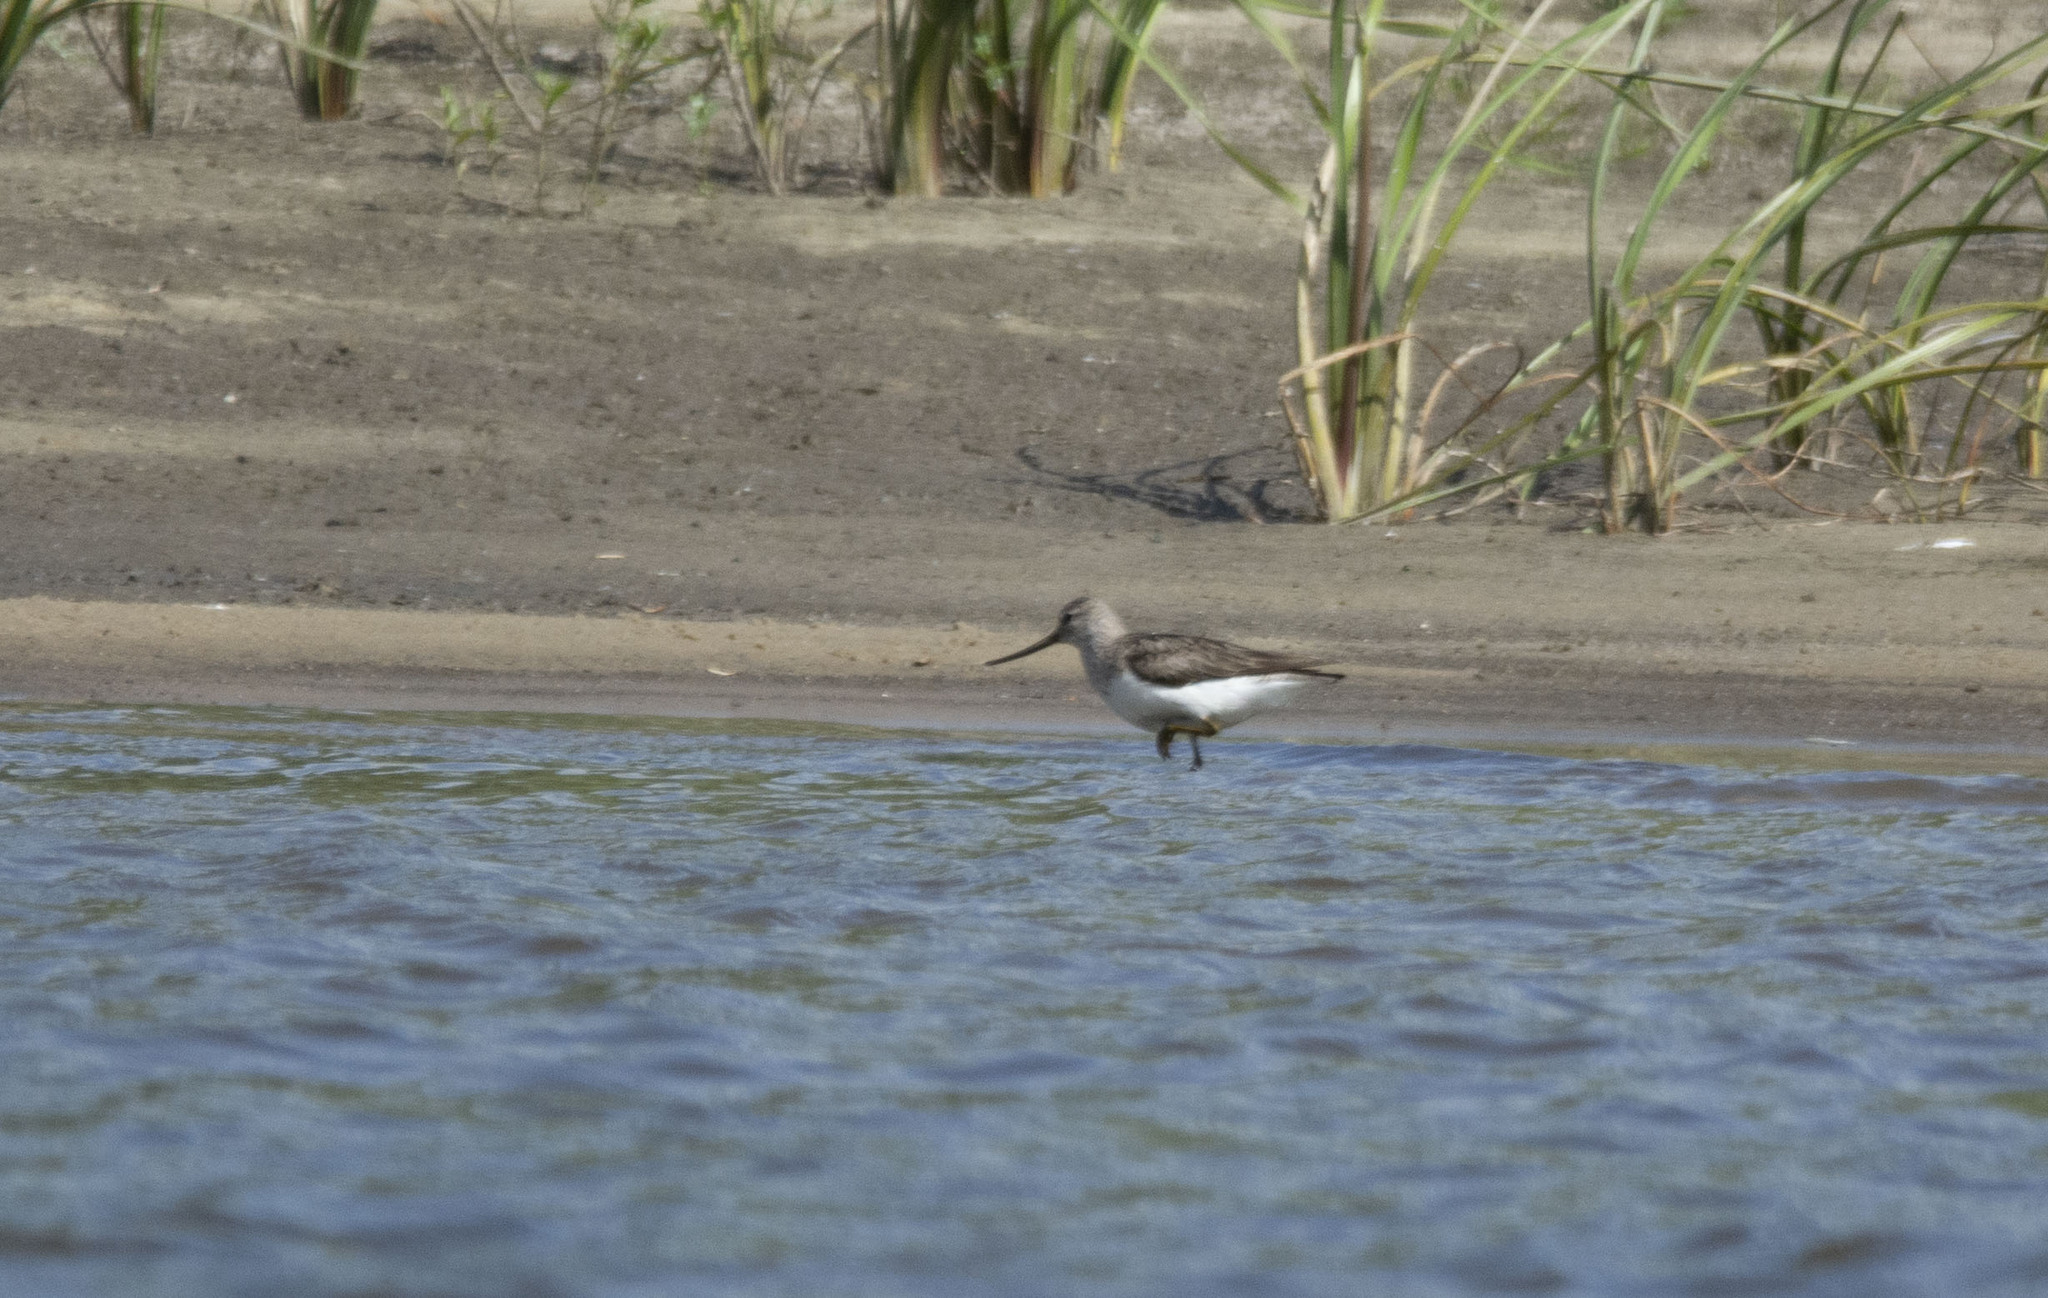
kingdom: Animalia
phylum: Chordata
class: Aves
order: Charadriiformes
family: Scolopacidae
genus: Xenus
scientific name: Xenus cinereus
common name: Terek sandpiper
